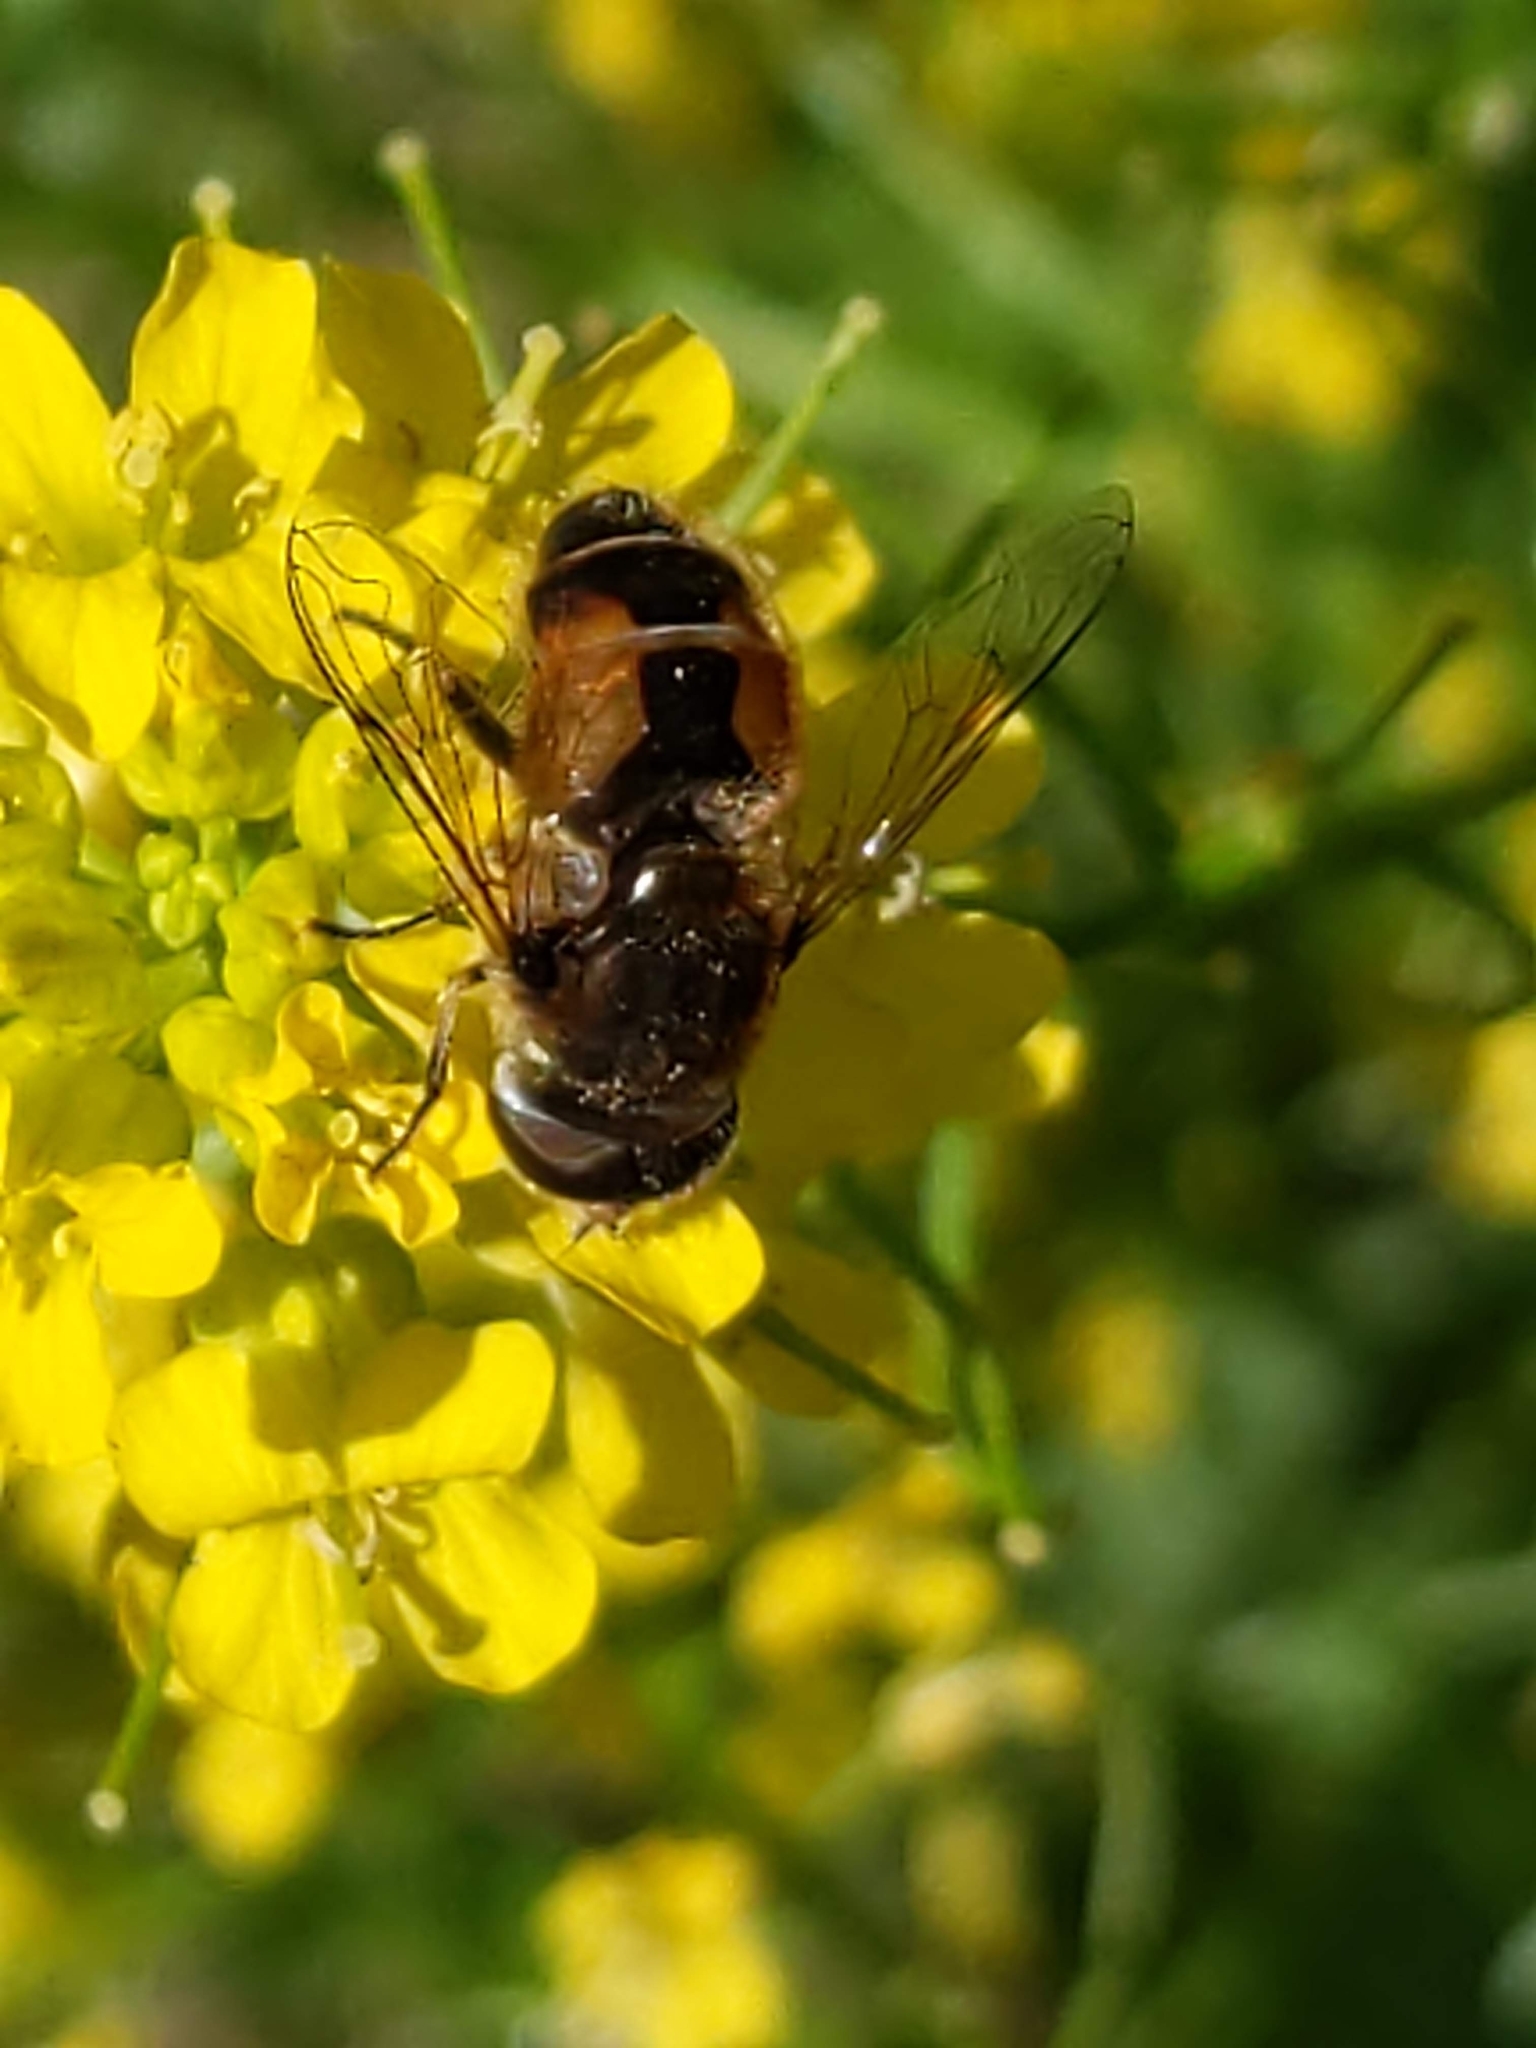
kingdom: Animalia
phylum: Arthropoda
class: Insecta
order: Diptera
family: Syrphidae
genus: Eristalis
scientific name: Eristalis arbustorum
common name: Hover fly
